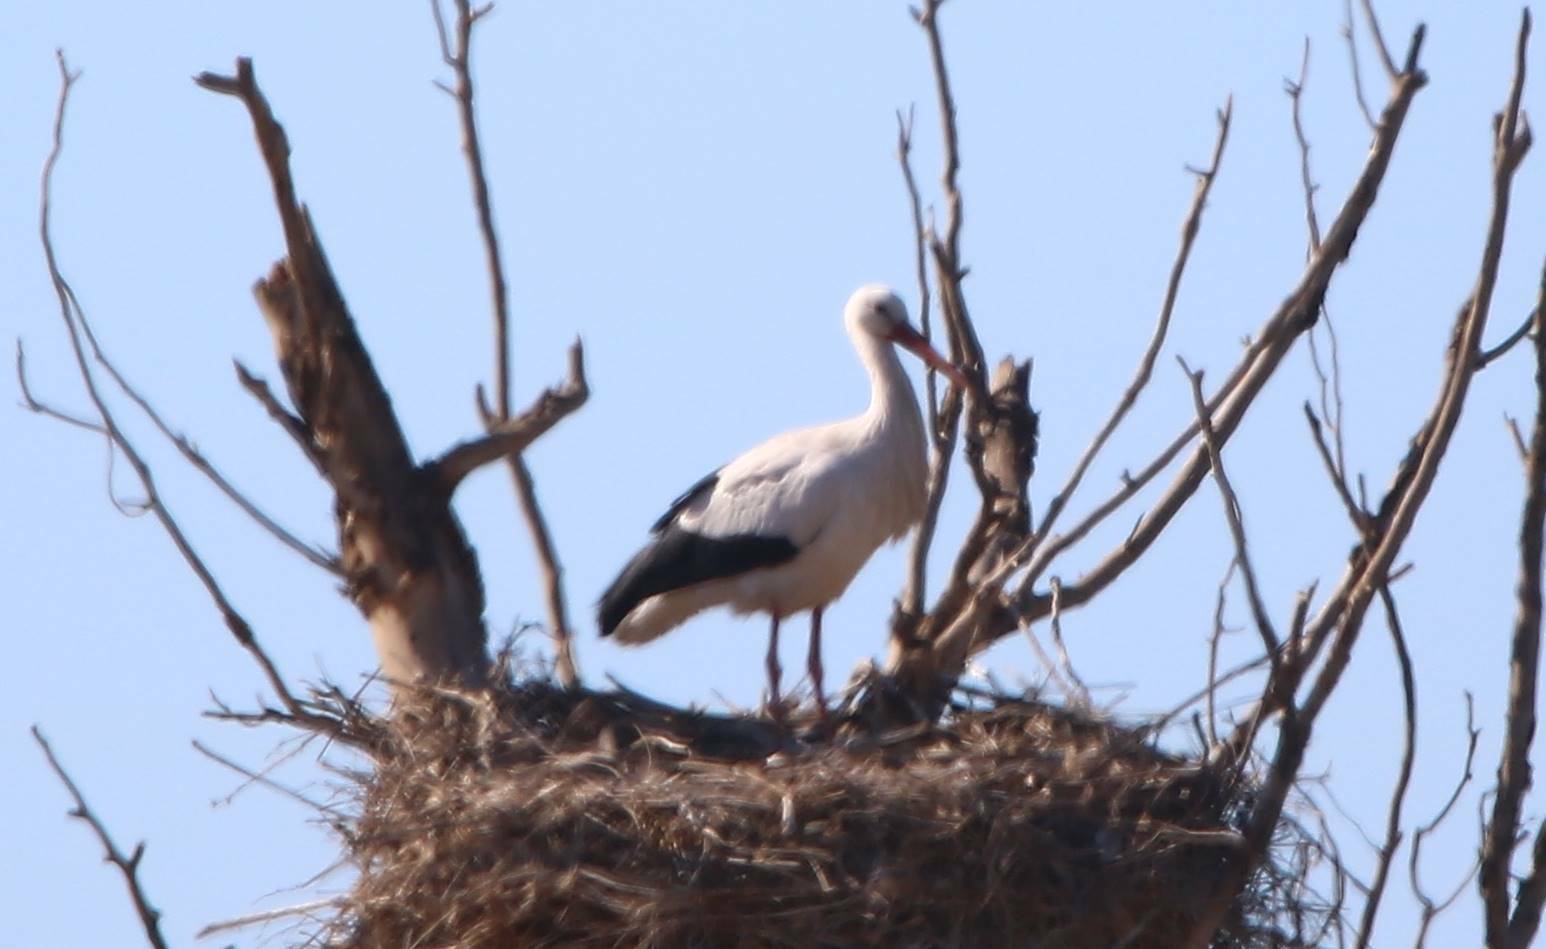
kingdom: Animalia
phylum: Chordata
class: Aves
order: Ciconiiformes
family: Ciconiidae
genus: Ciconia
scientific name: Ciconia ciconia
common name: White stork
